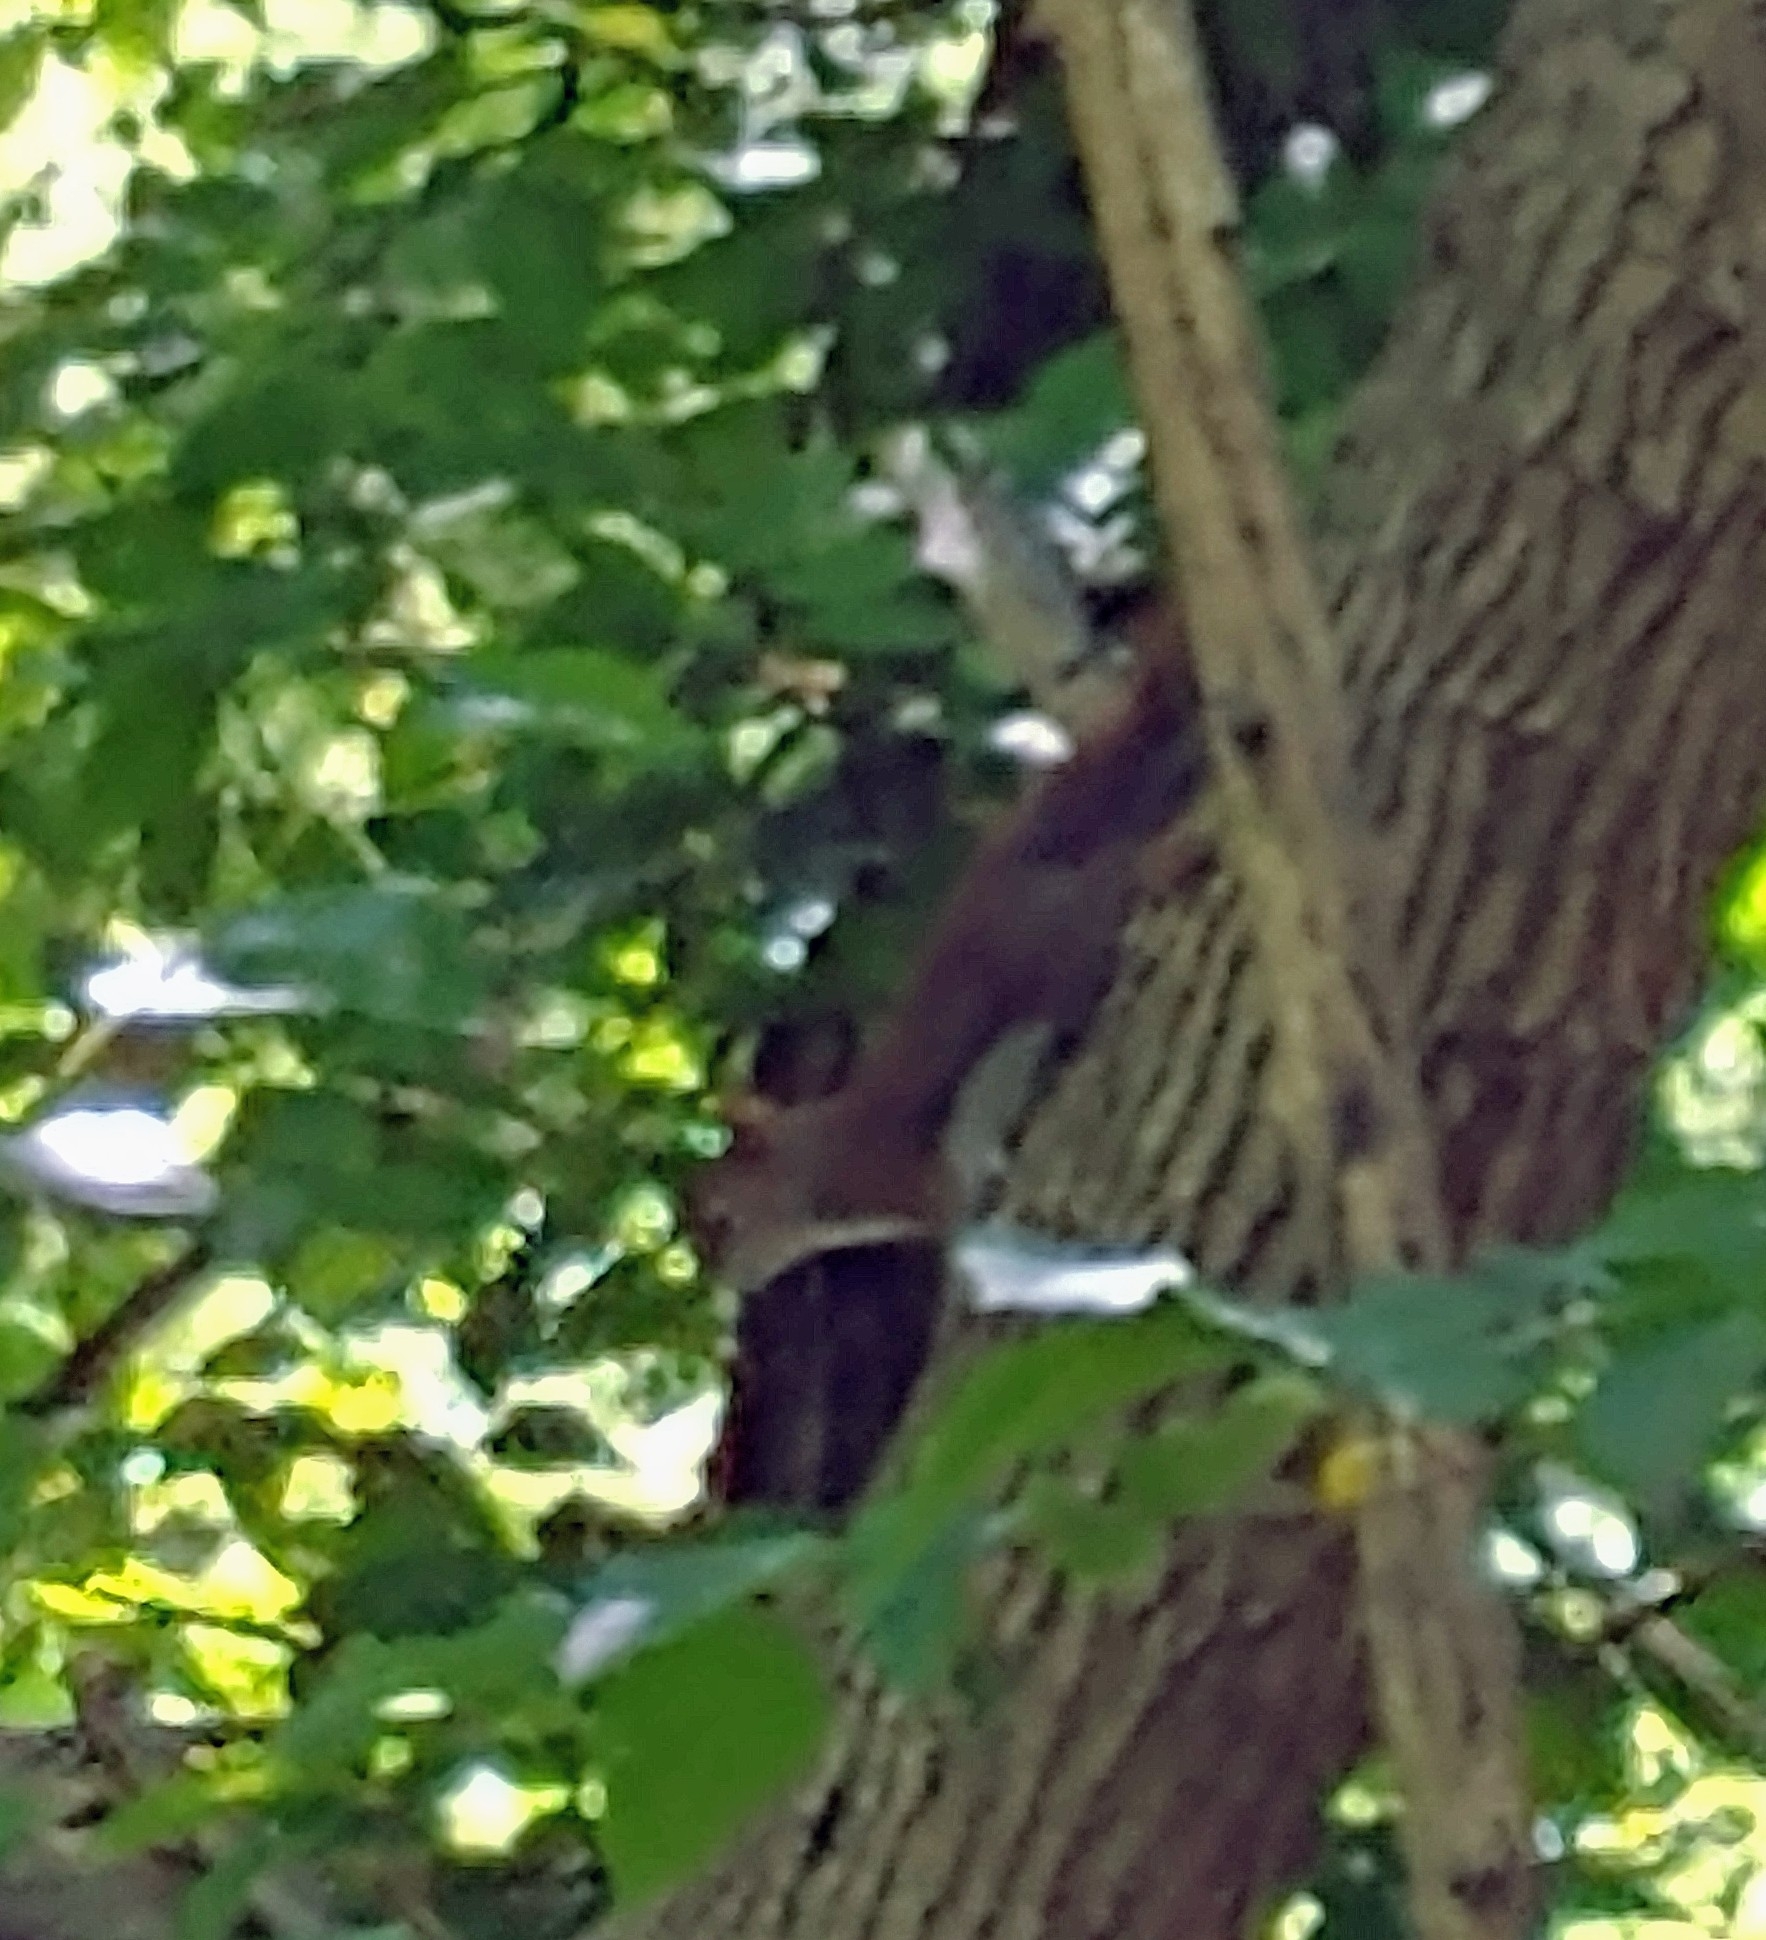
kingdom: Animalia
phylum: Chordata
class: Mammalia
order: Rodentia
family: Sciuridae
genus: Tamiasciurus
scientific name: Tamiasciurus hudsonicus
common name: Red squirrel
